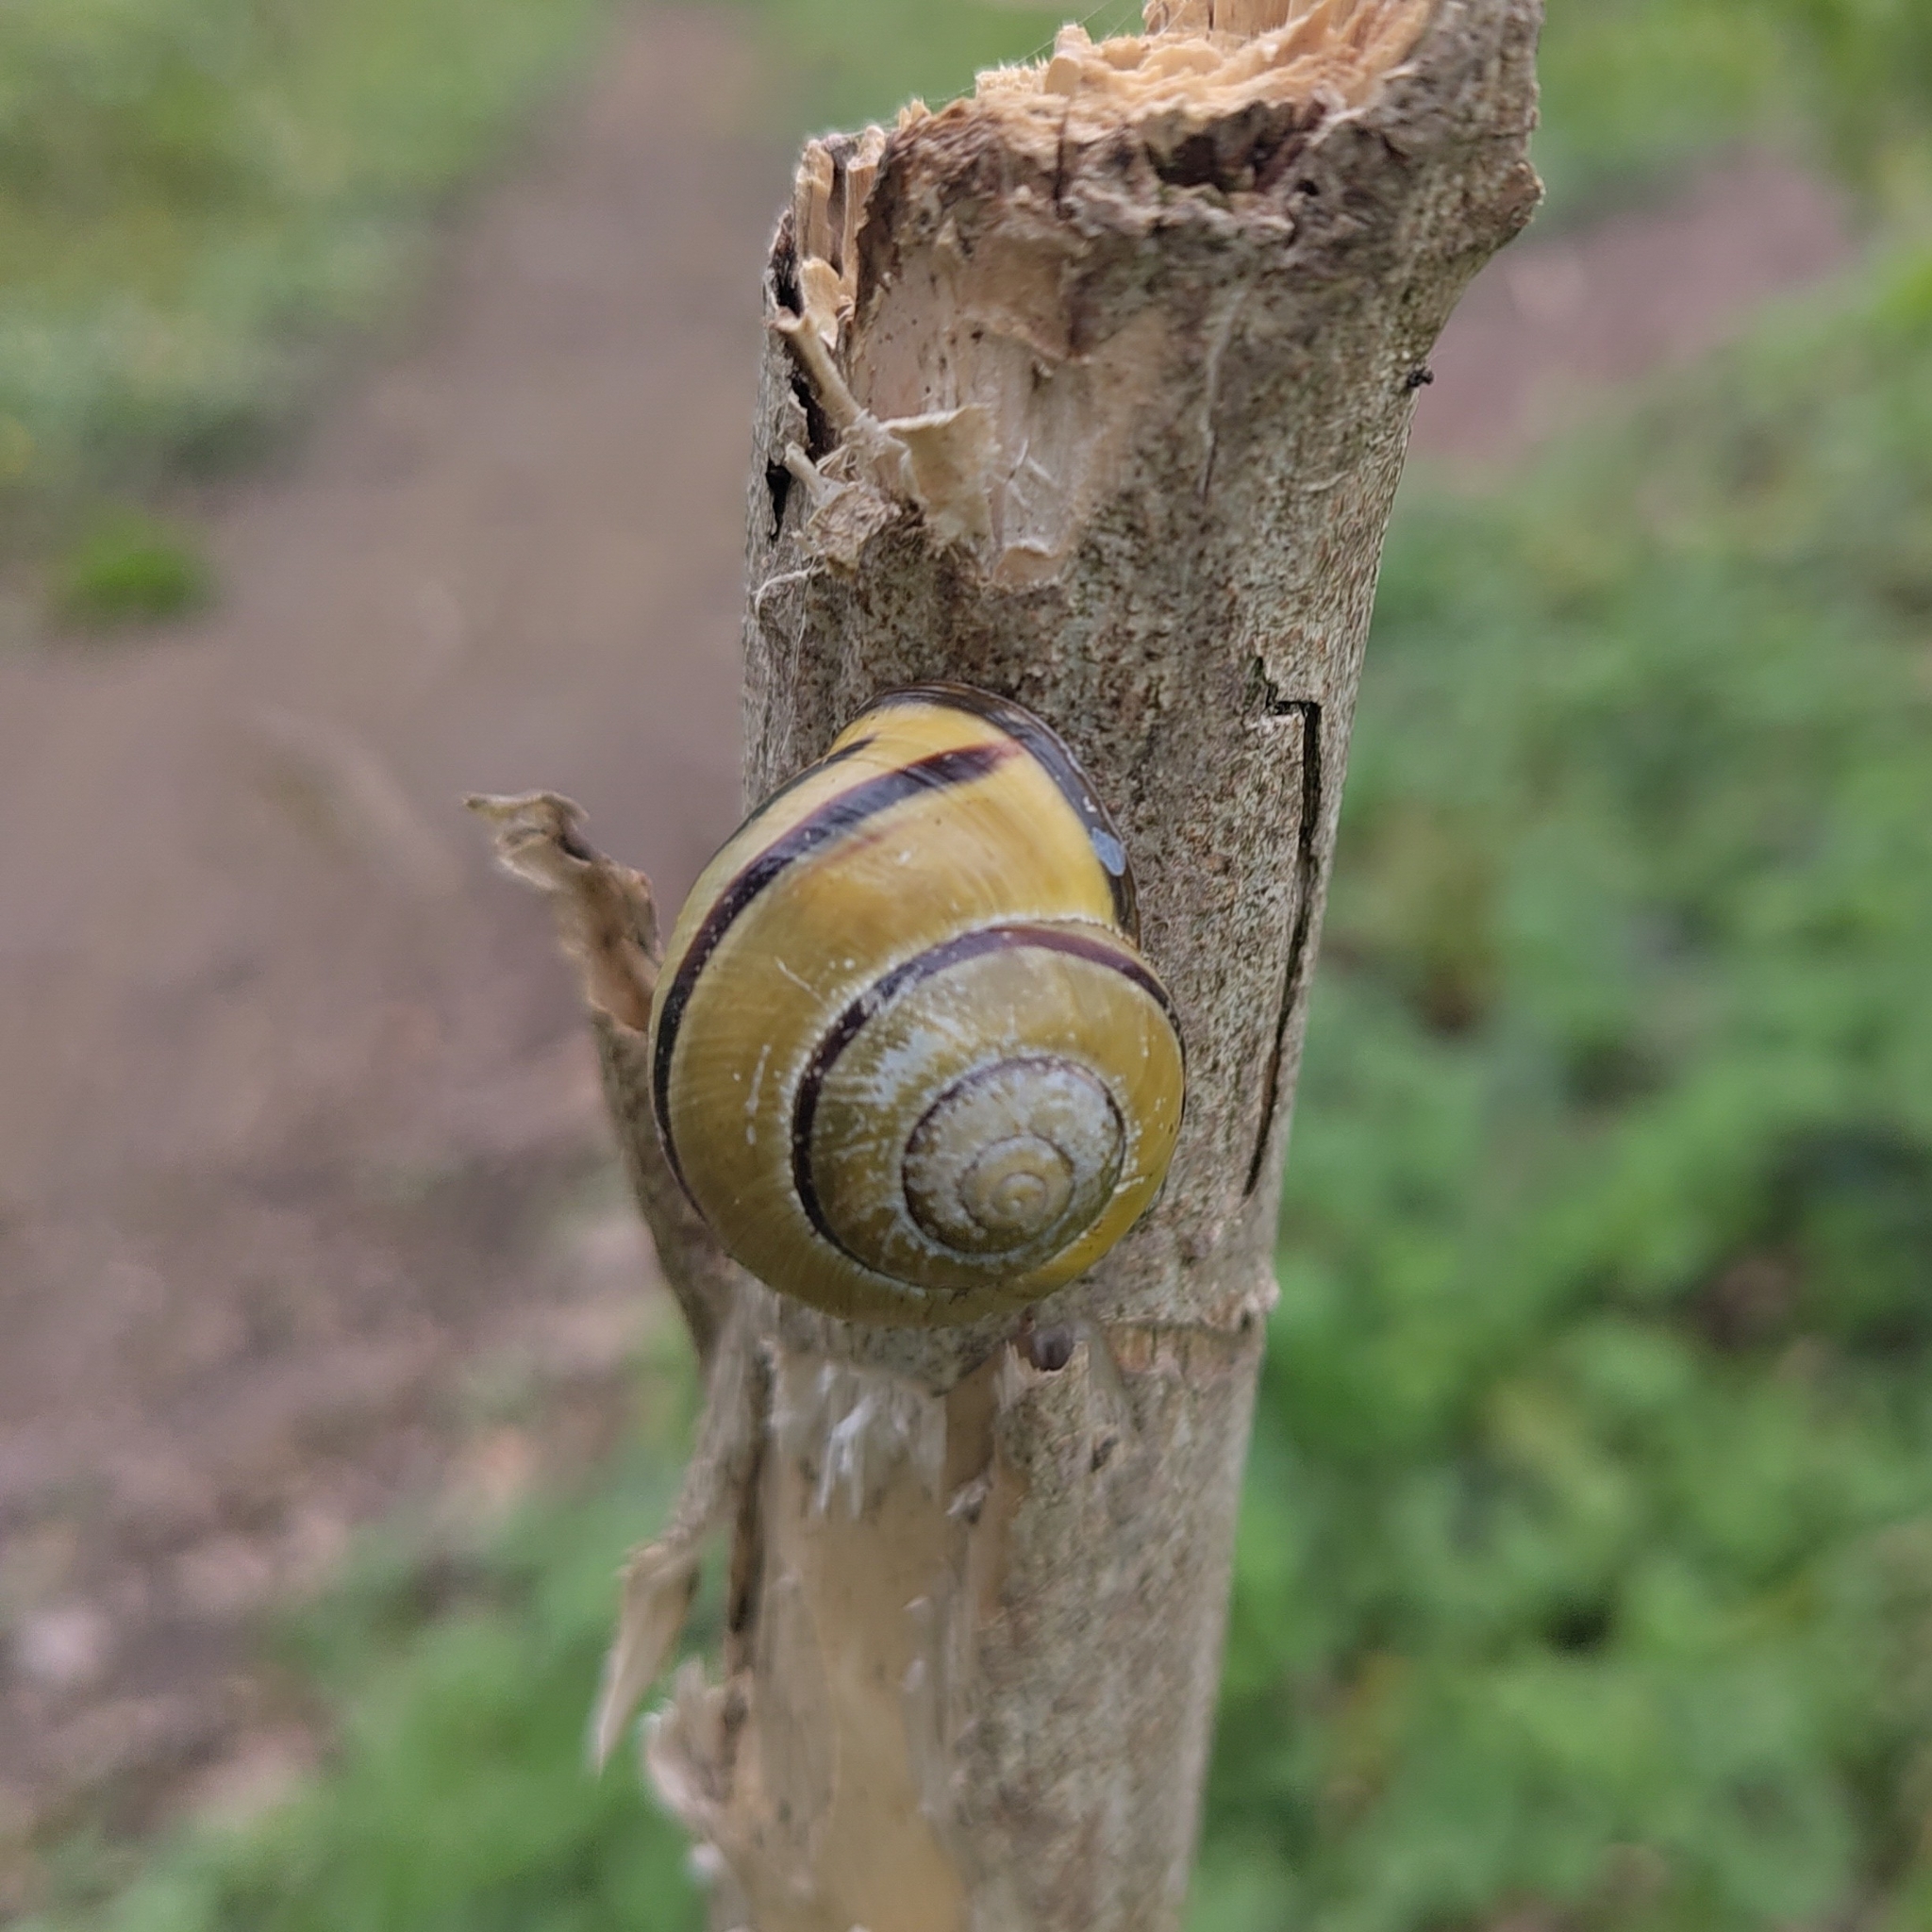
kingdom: Animalia
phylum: Mollusca
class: Gastropoda
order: Stylommatophora
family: Helicidae
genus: Cepaea
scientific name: Cepaea nemoralis
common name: Grovesnail
